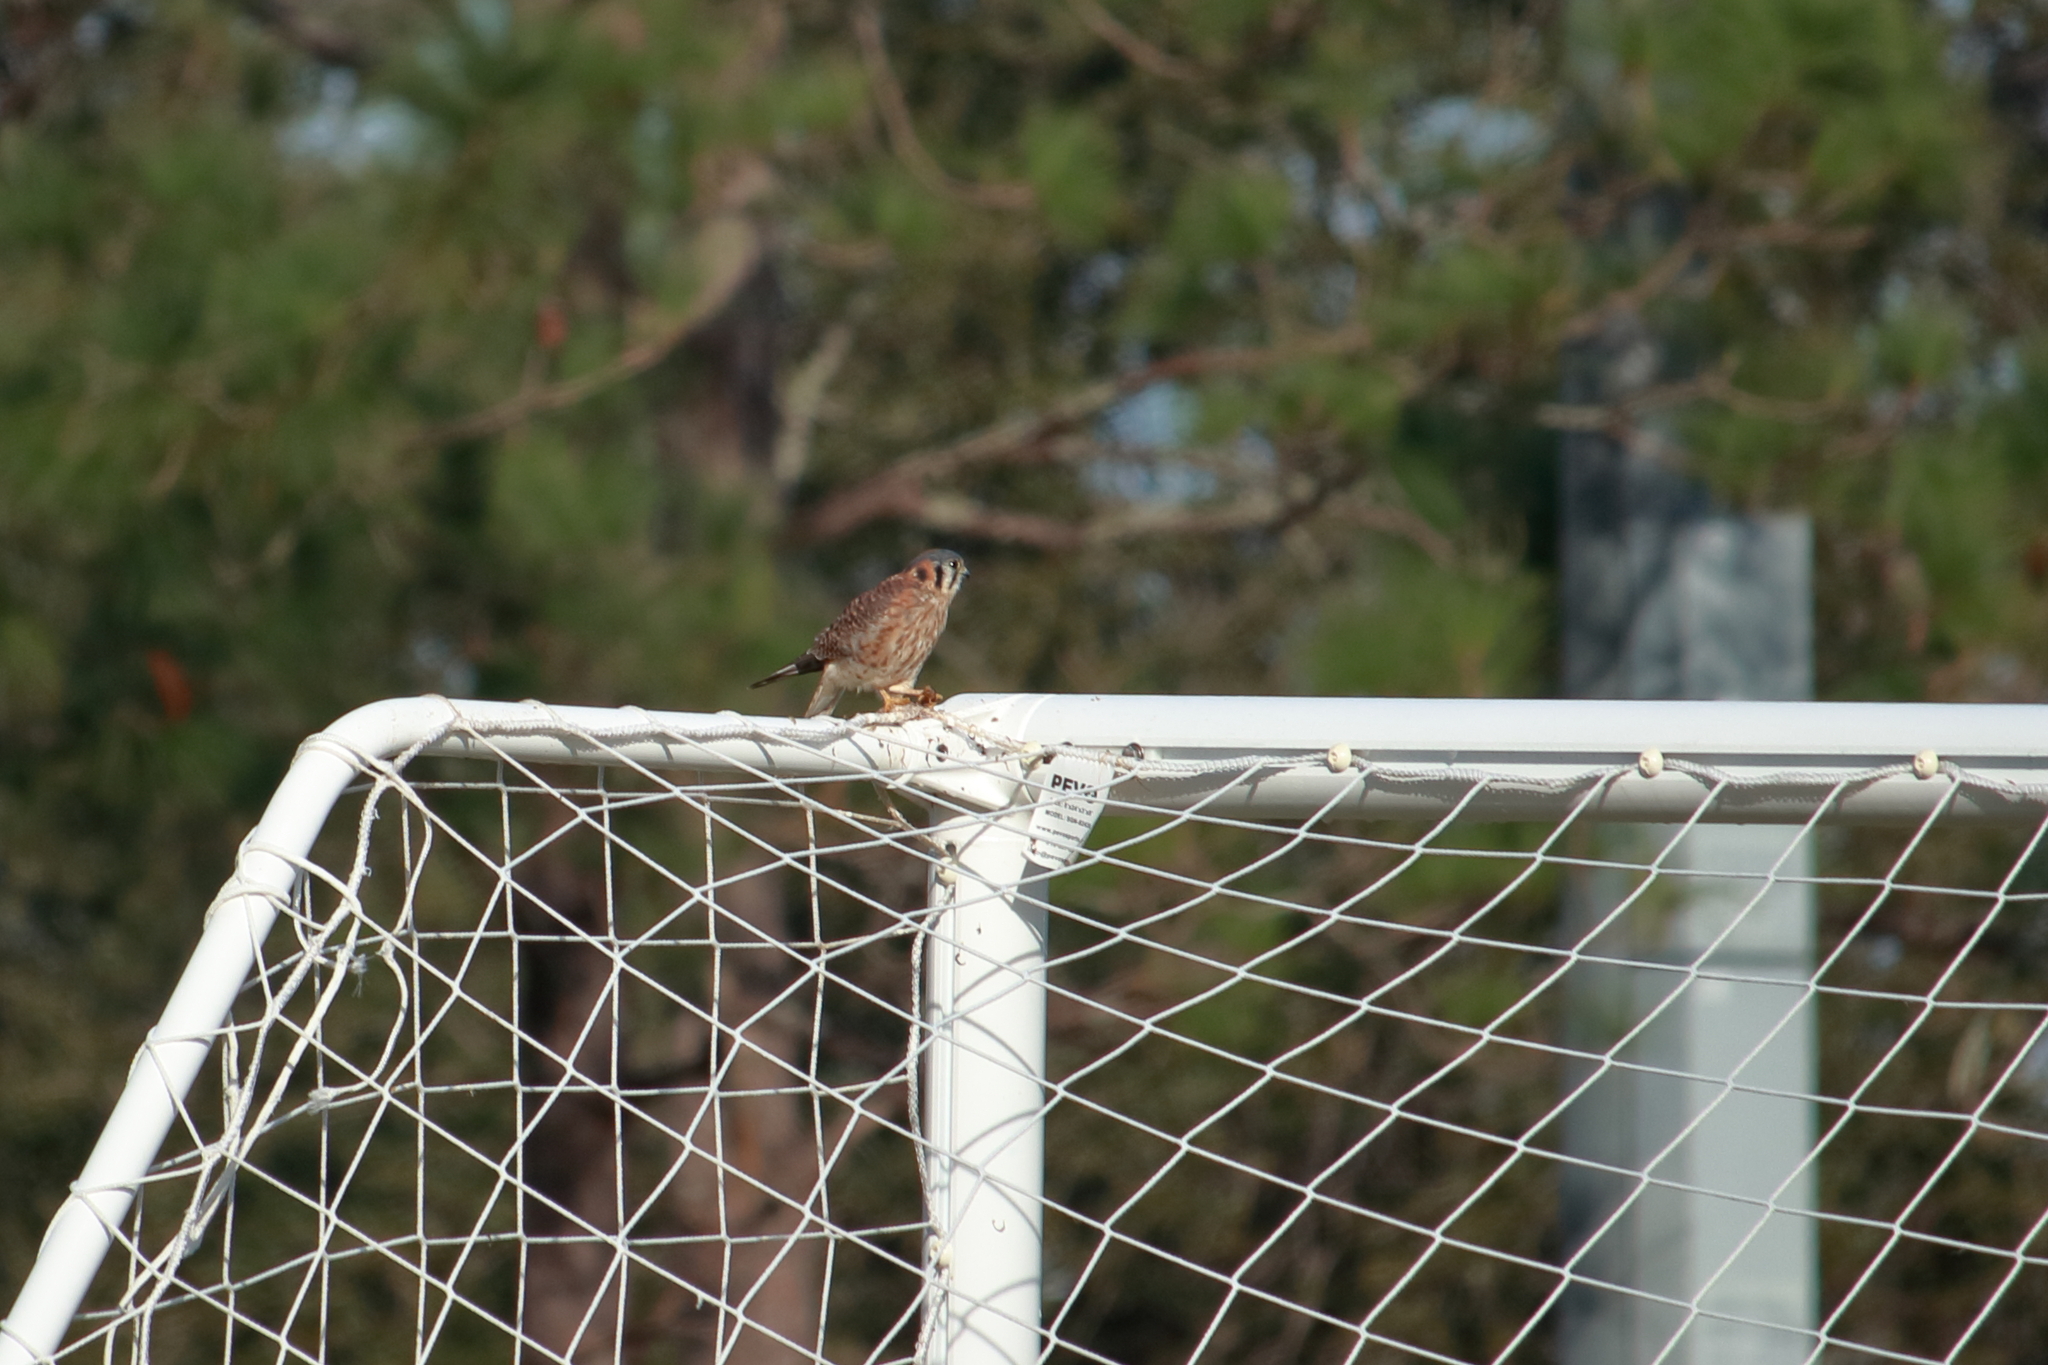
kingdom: Animalia
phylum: Chordata
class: Aves
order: Falconiformes
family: Falconidae
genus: Falco
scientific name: Falco sparverius
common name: American kestrel
